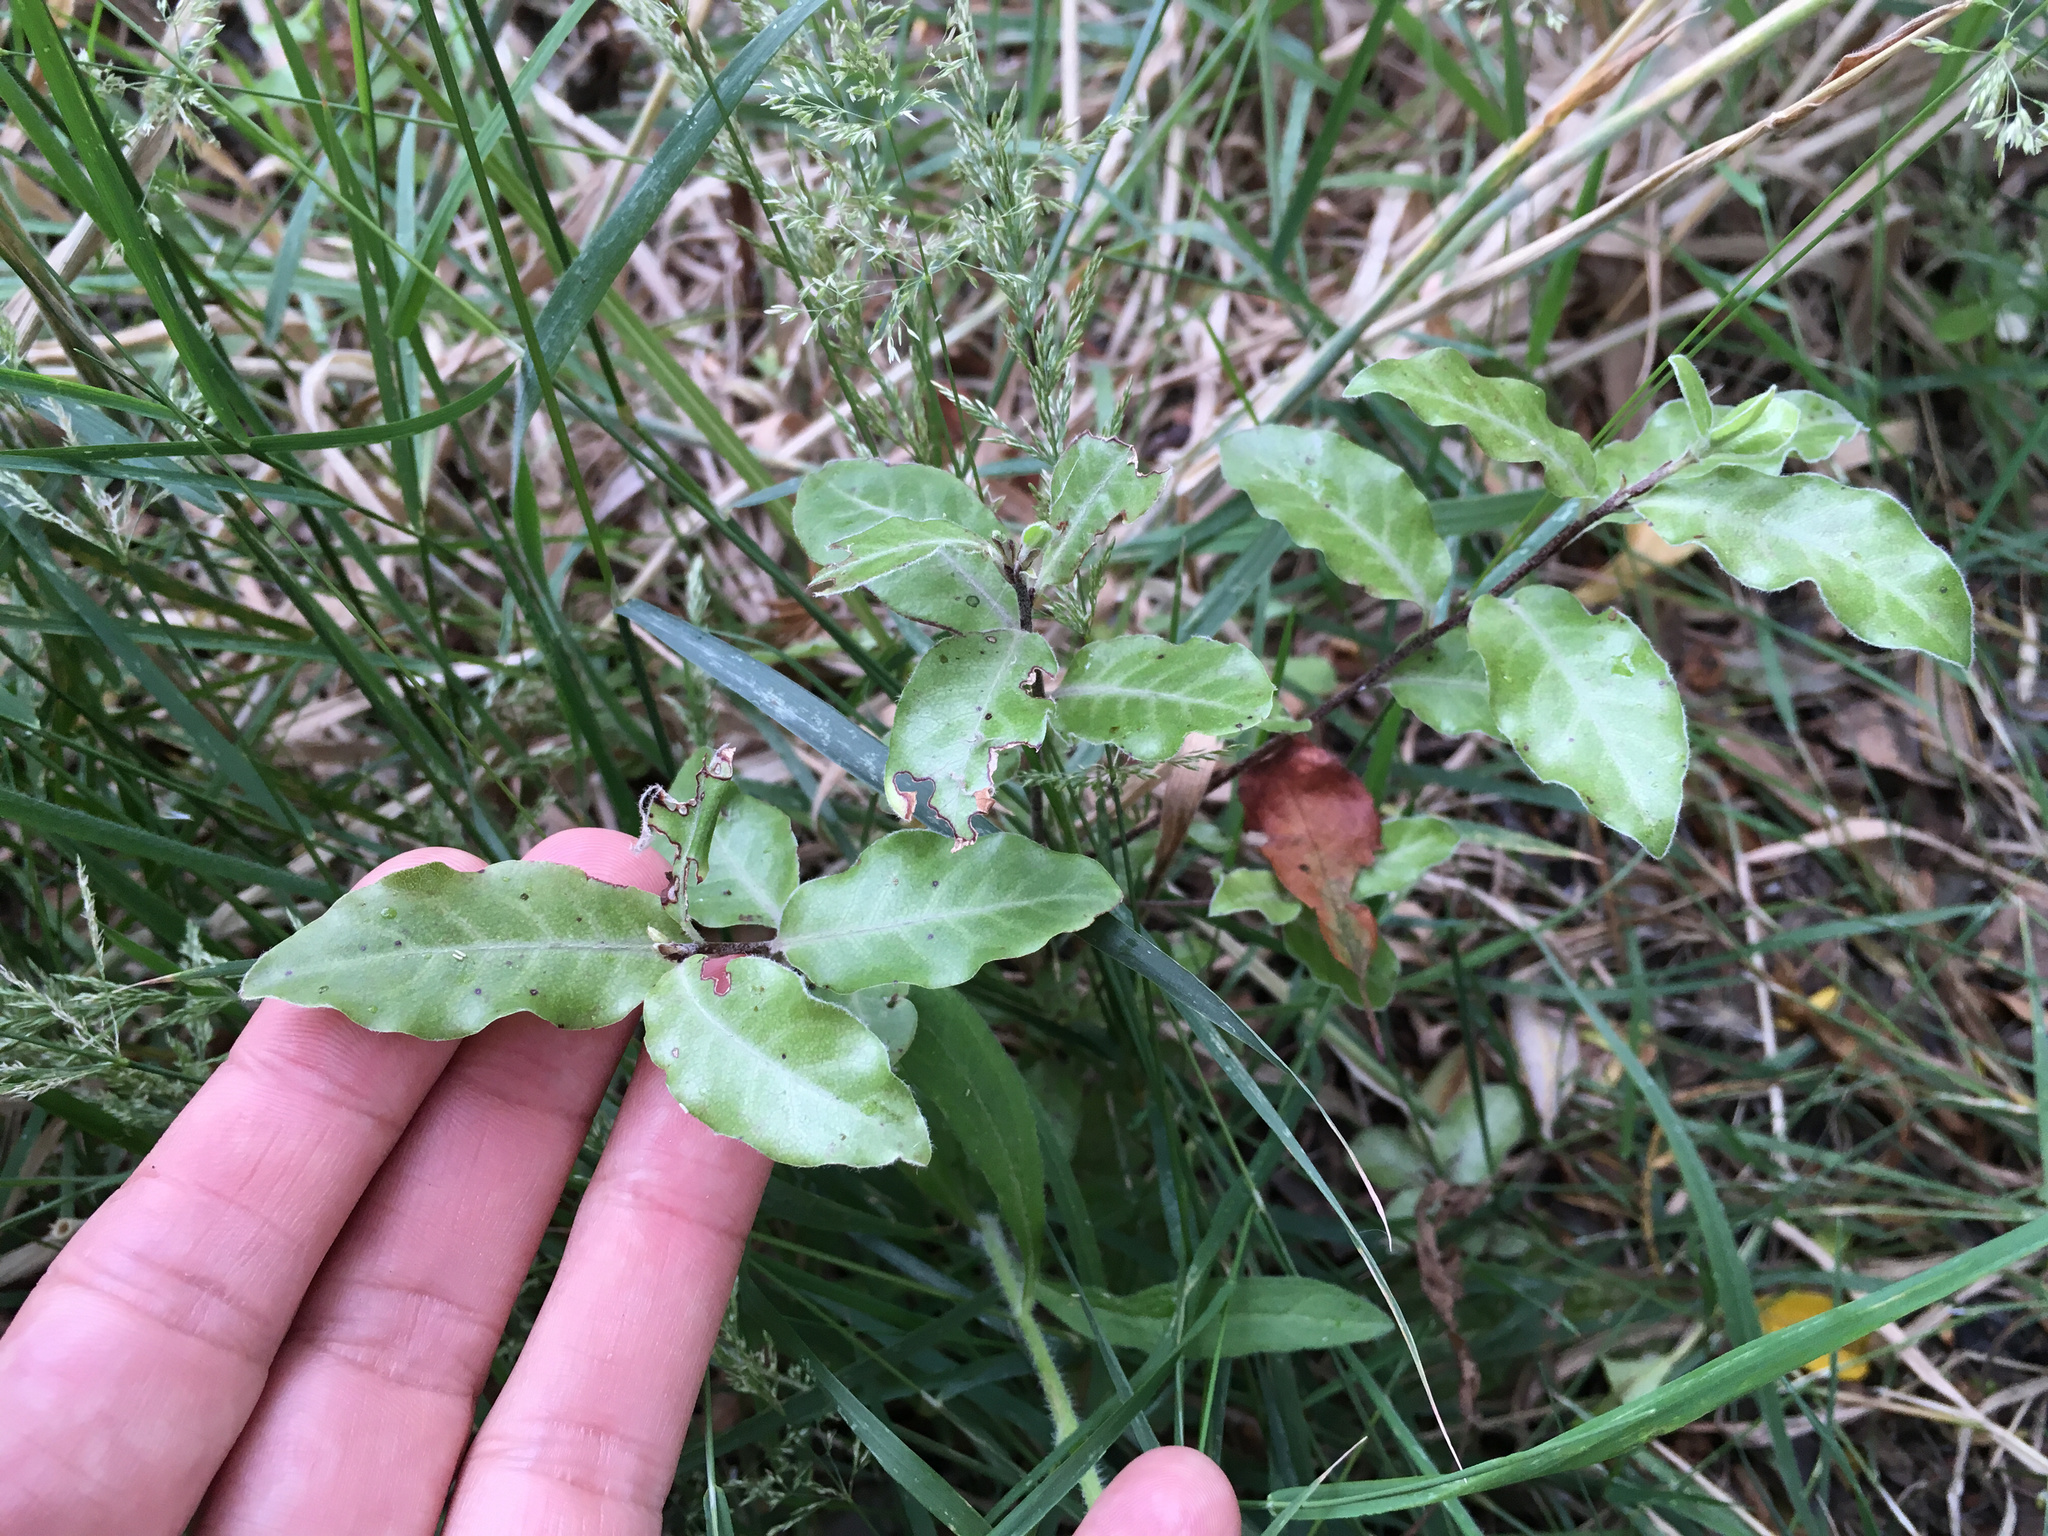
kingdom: Plantae
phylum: Tracheophyta
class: Magnoliopsida
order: Apiales
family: Pittosporaceae
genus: Pittosporum
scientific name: Pittosporum tenuifolium
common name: Kohuhu
